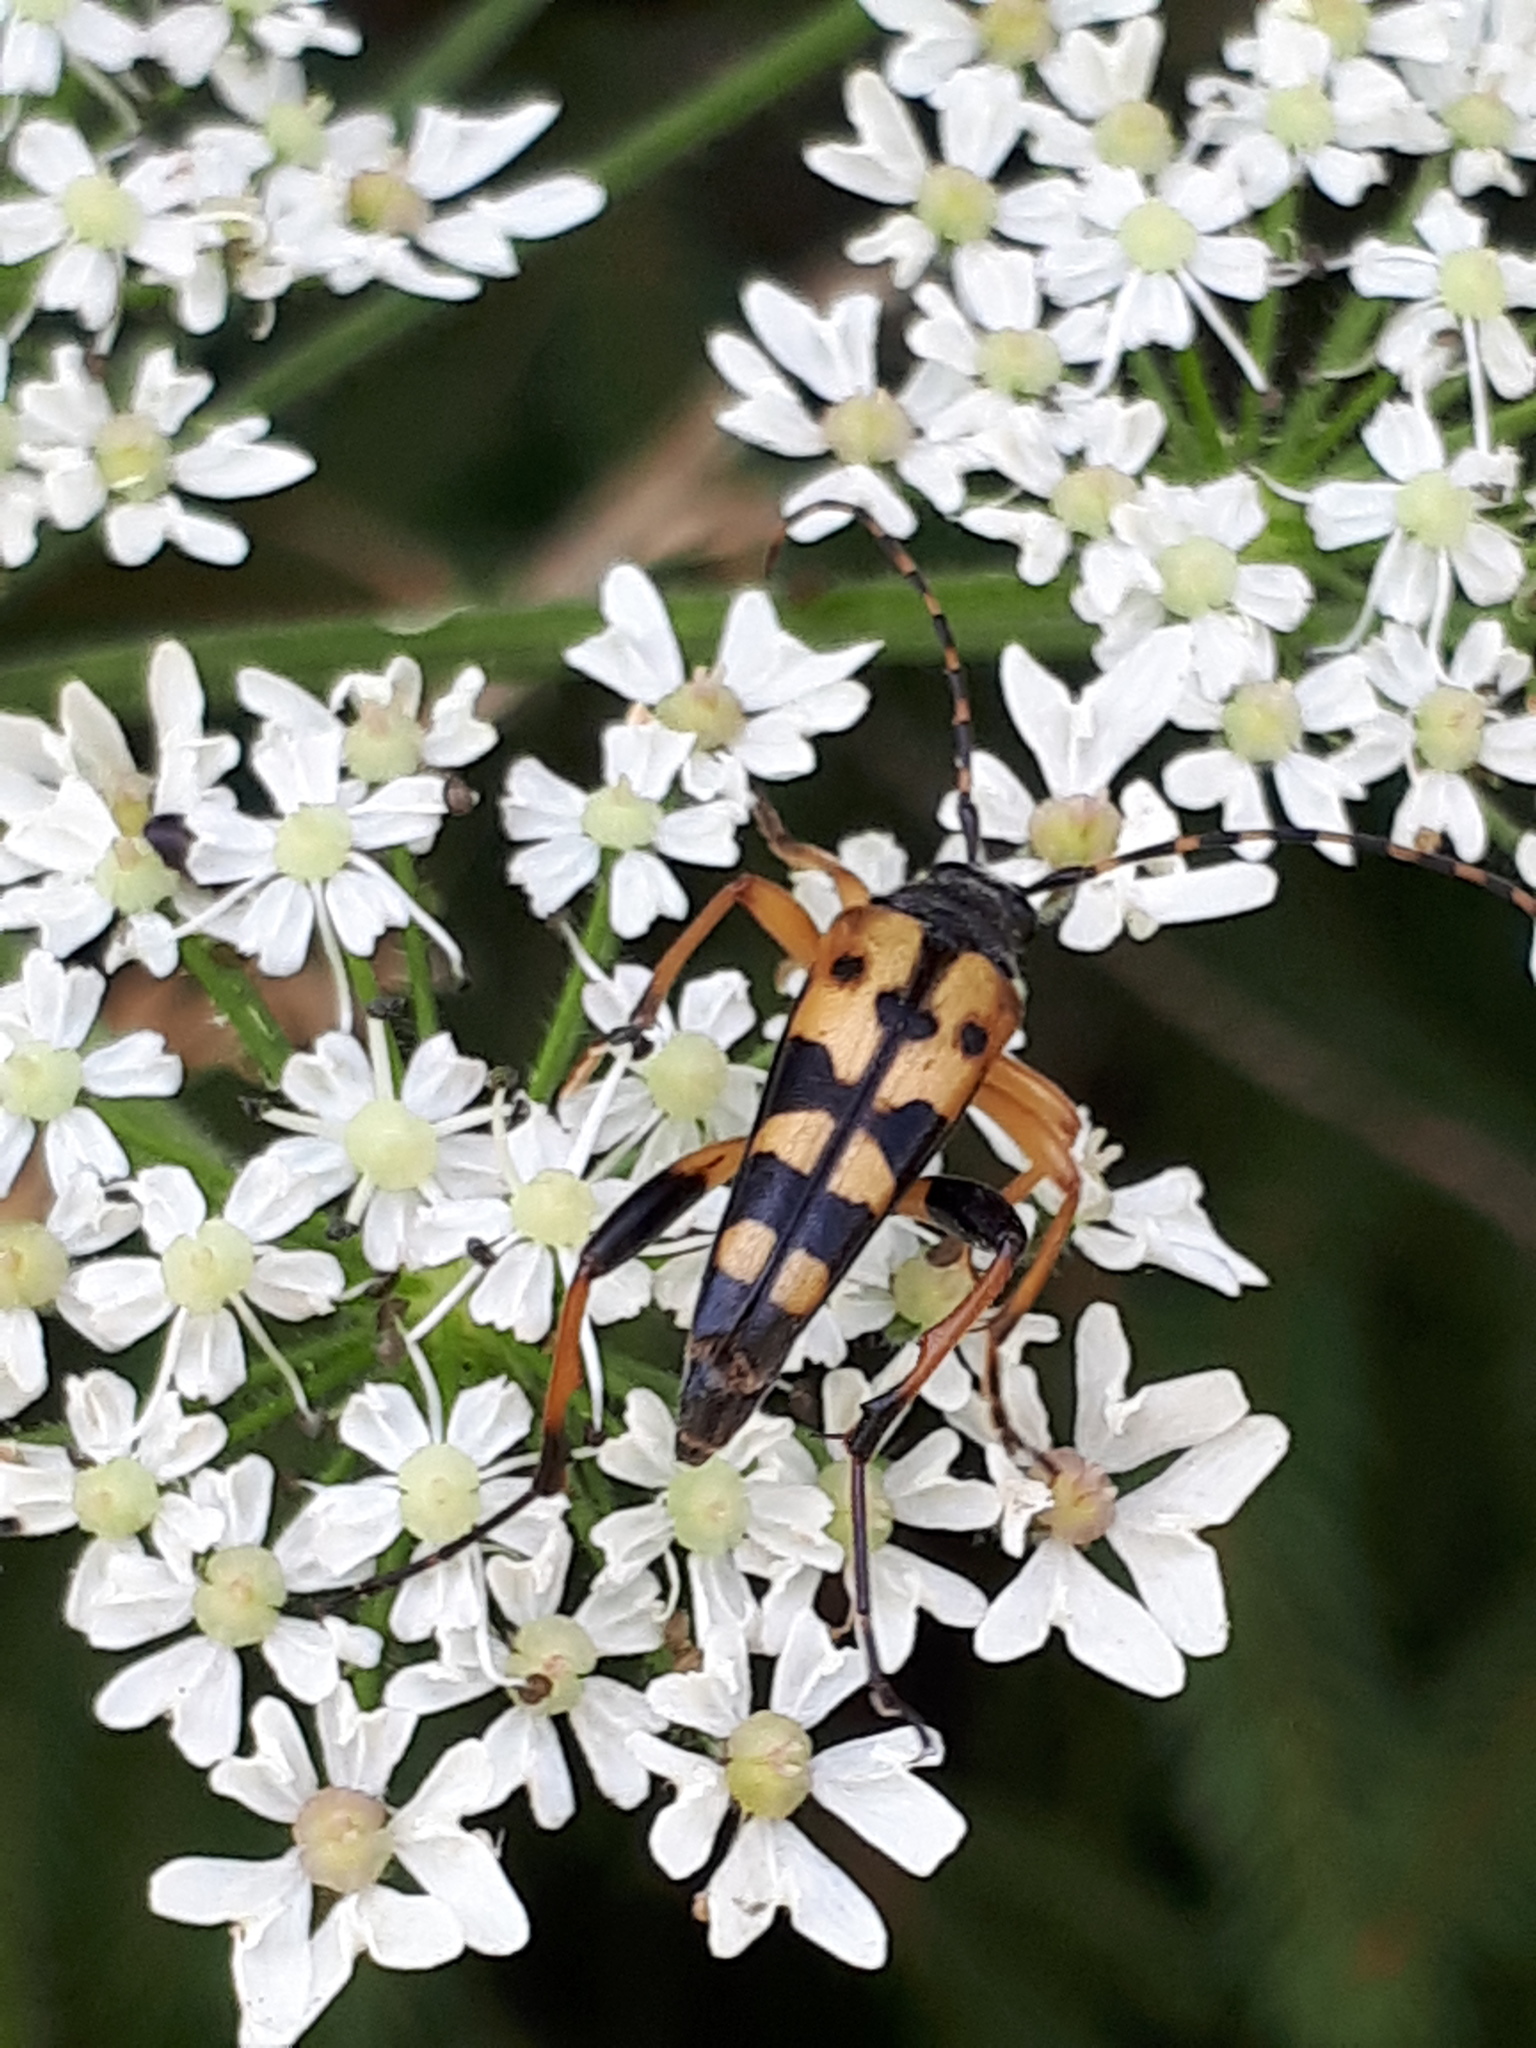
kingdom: Animalia
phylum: Arthropoda
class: Insecta
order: Coleoptera
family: Cerambycidae
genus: Rutpela
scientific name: Rutpela maculata
